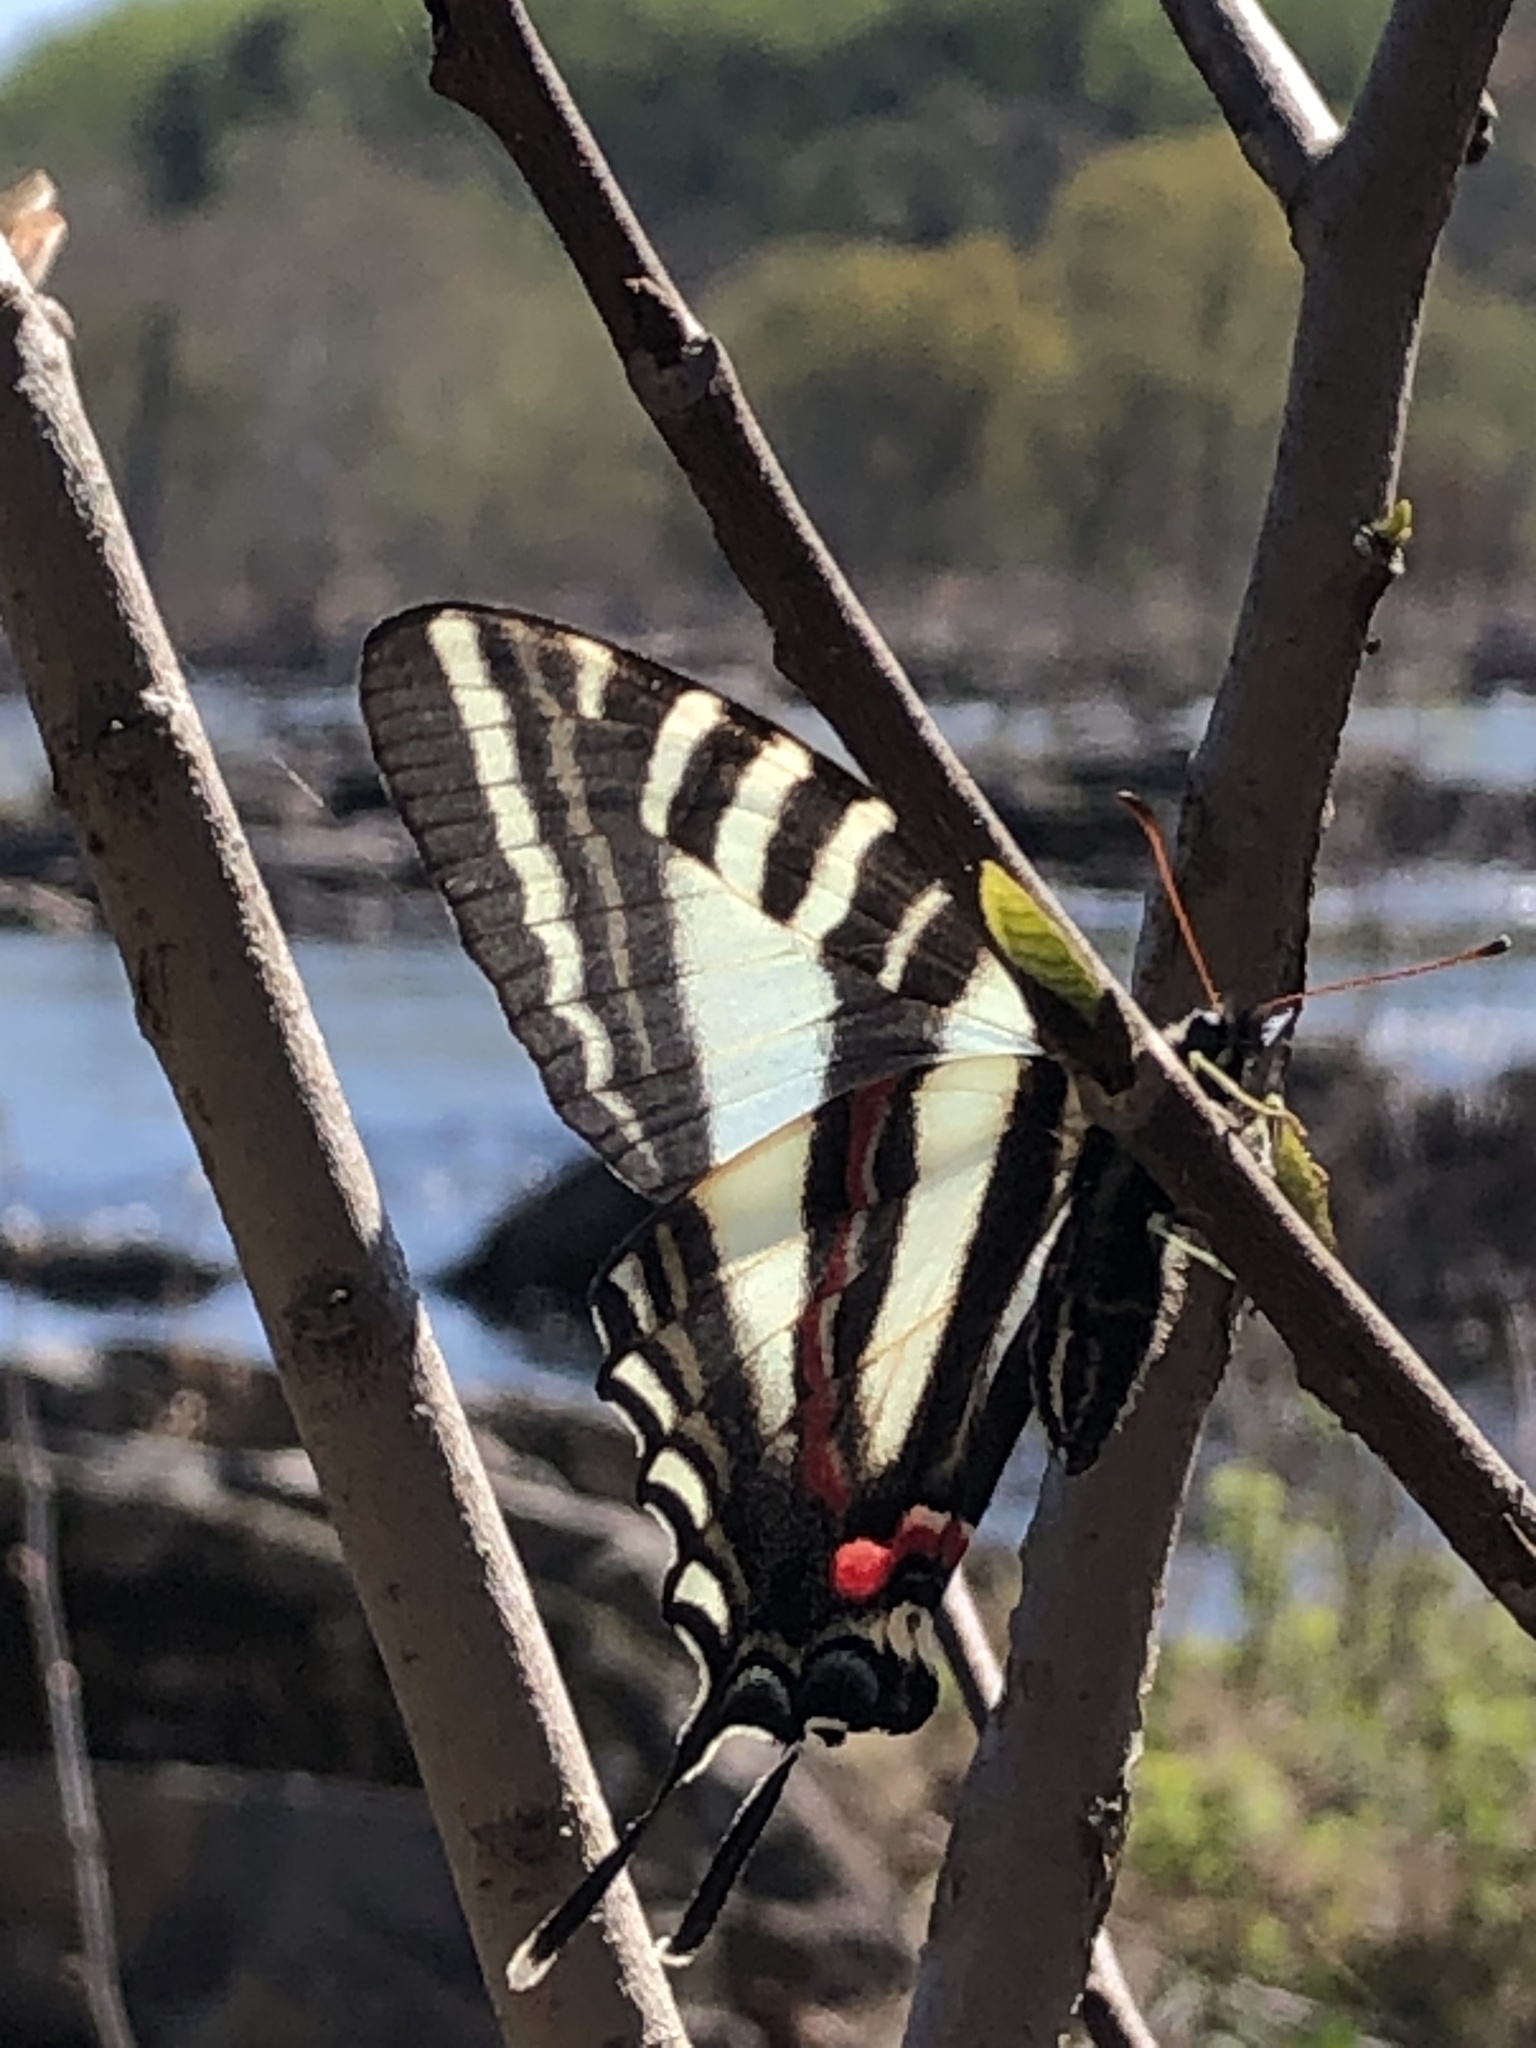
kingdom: Animalia
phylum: Arthropoda
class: Insecta
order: Lepidoptera
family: Papilionidae
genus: Protographium
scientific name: Protographium marcellus
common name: Zebra swallowtail
